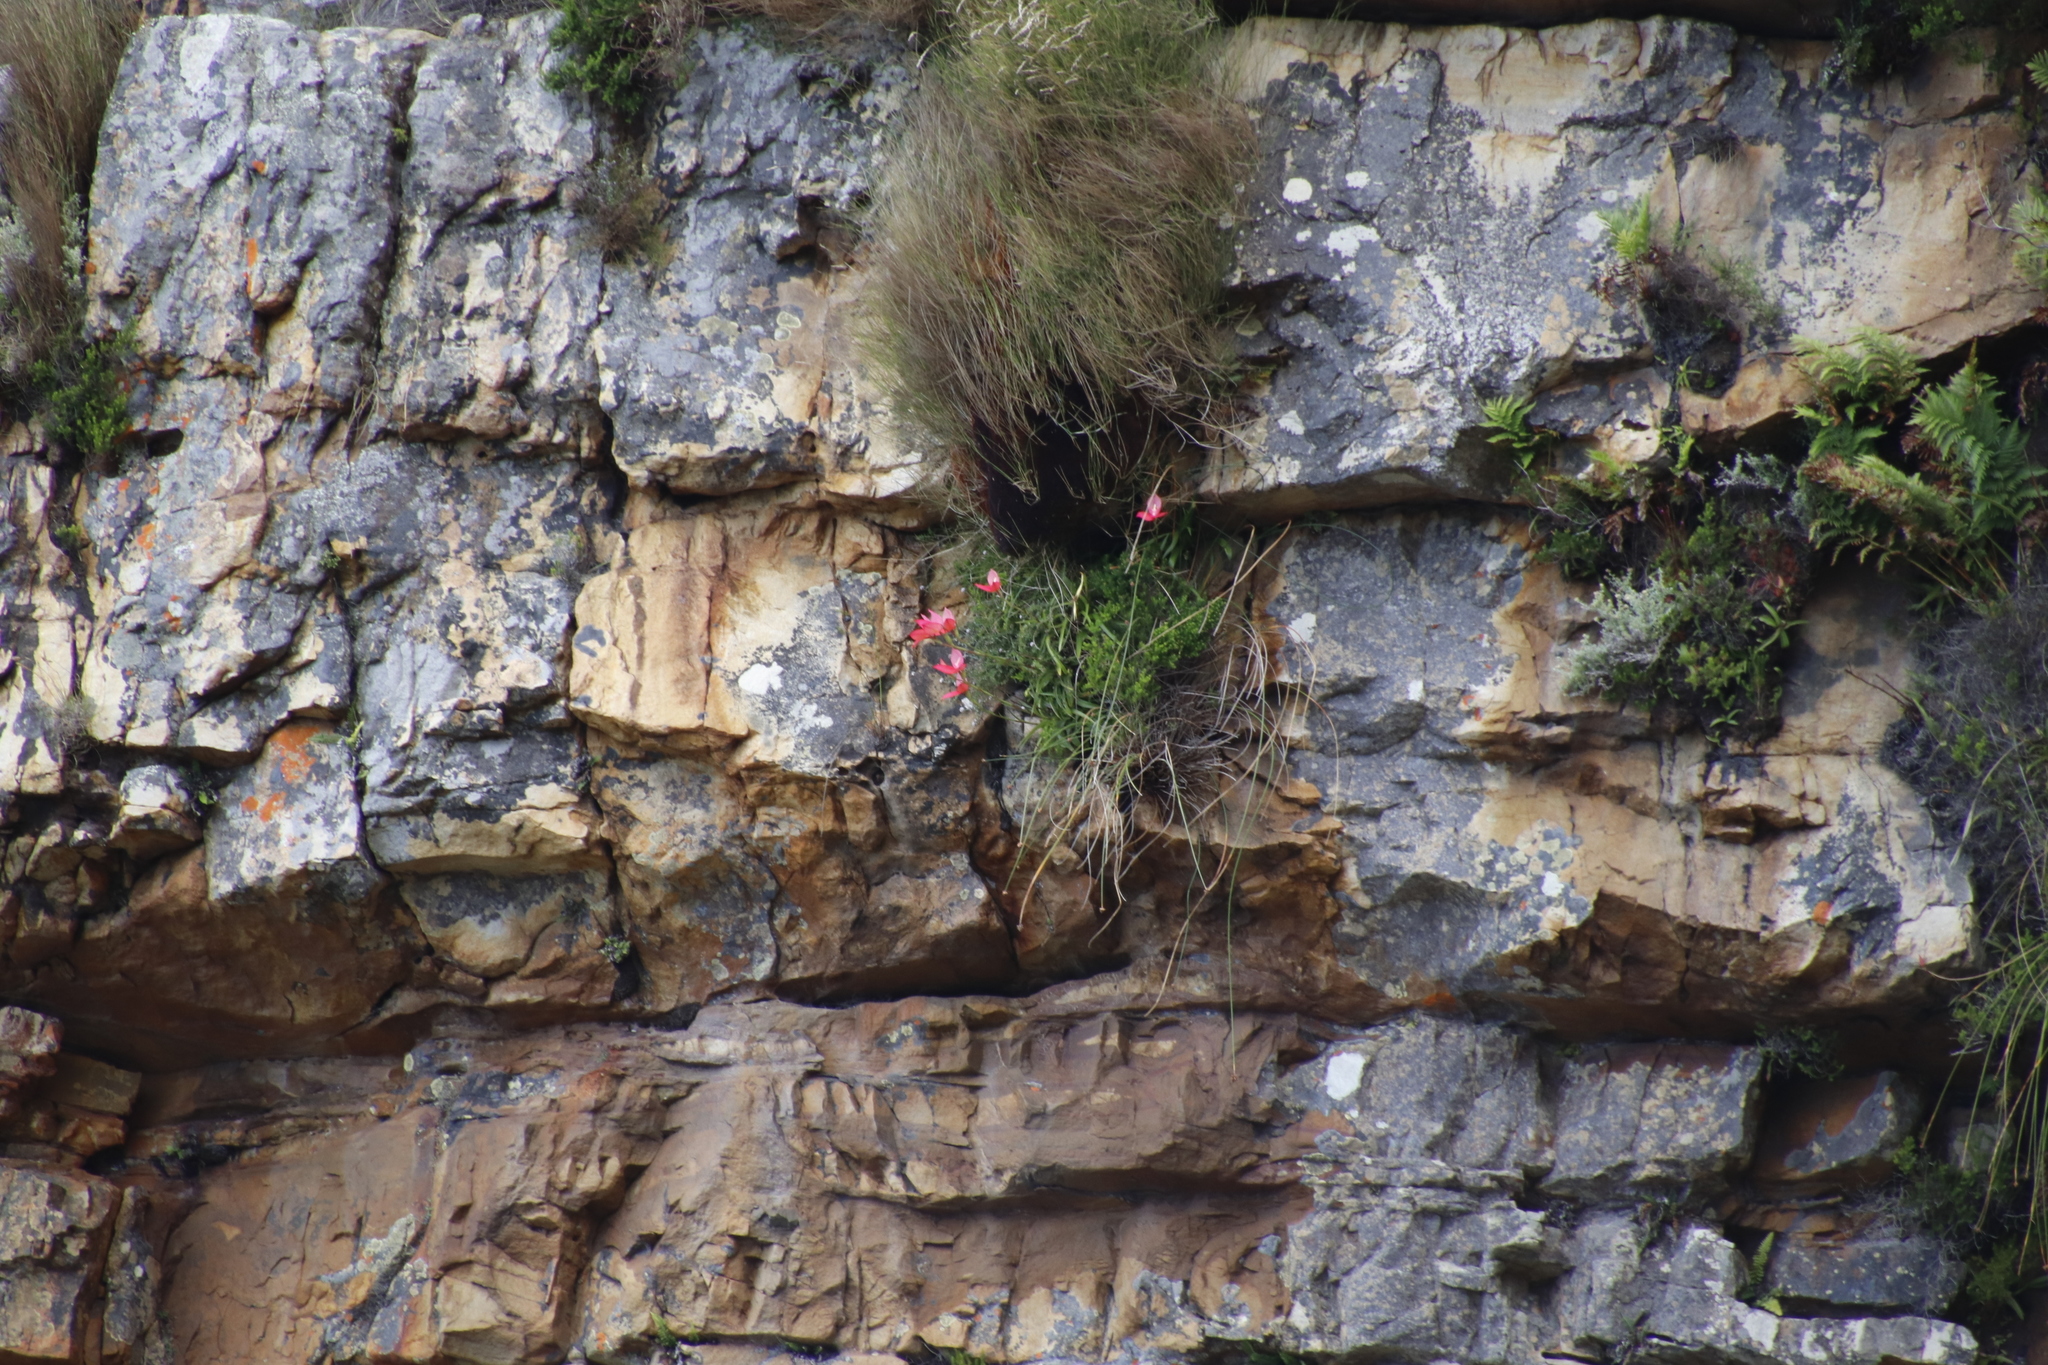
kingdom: Plantae
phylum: Tracheophyta
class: Liliopsida
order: Asparagales
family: Orchidaceae
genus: Disa
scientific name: Disa uniflora
